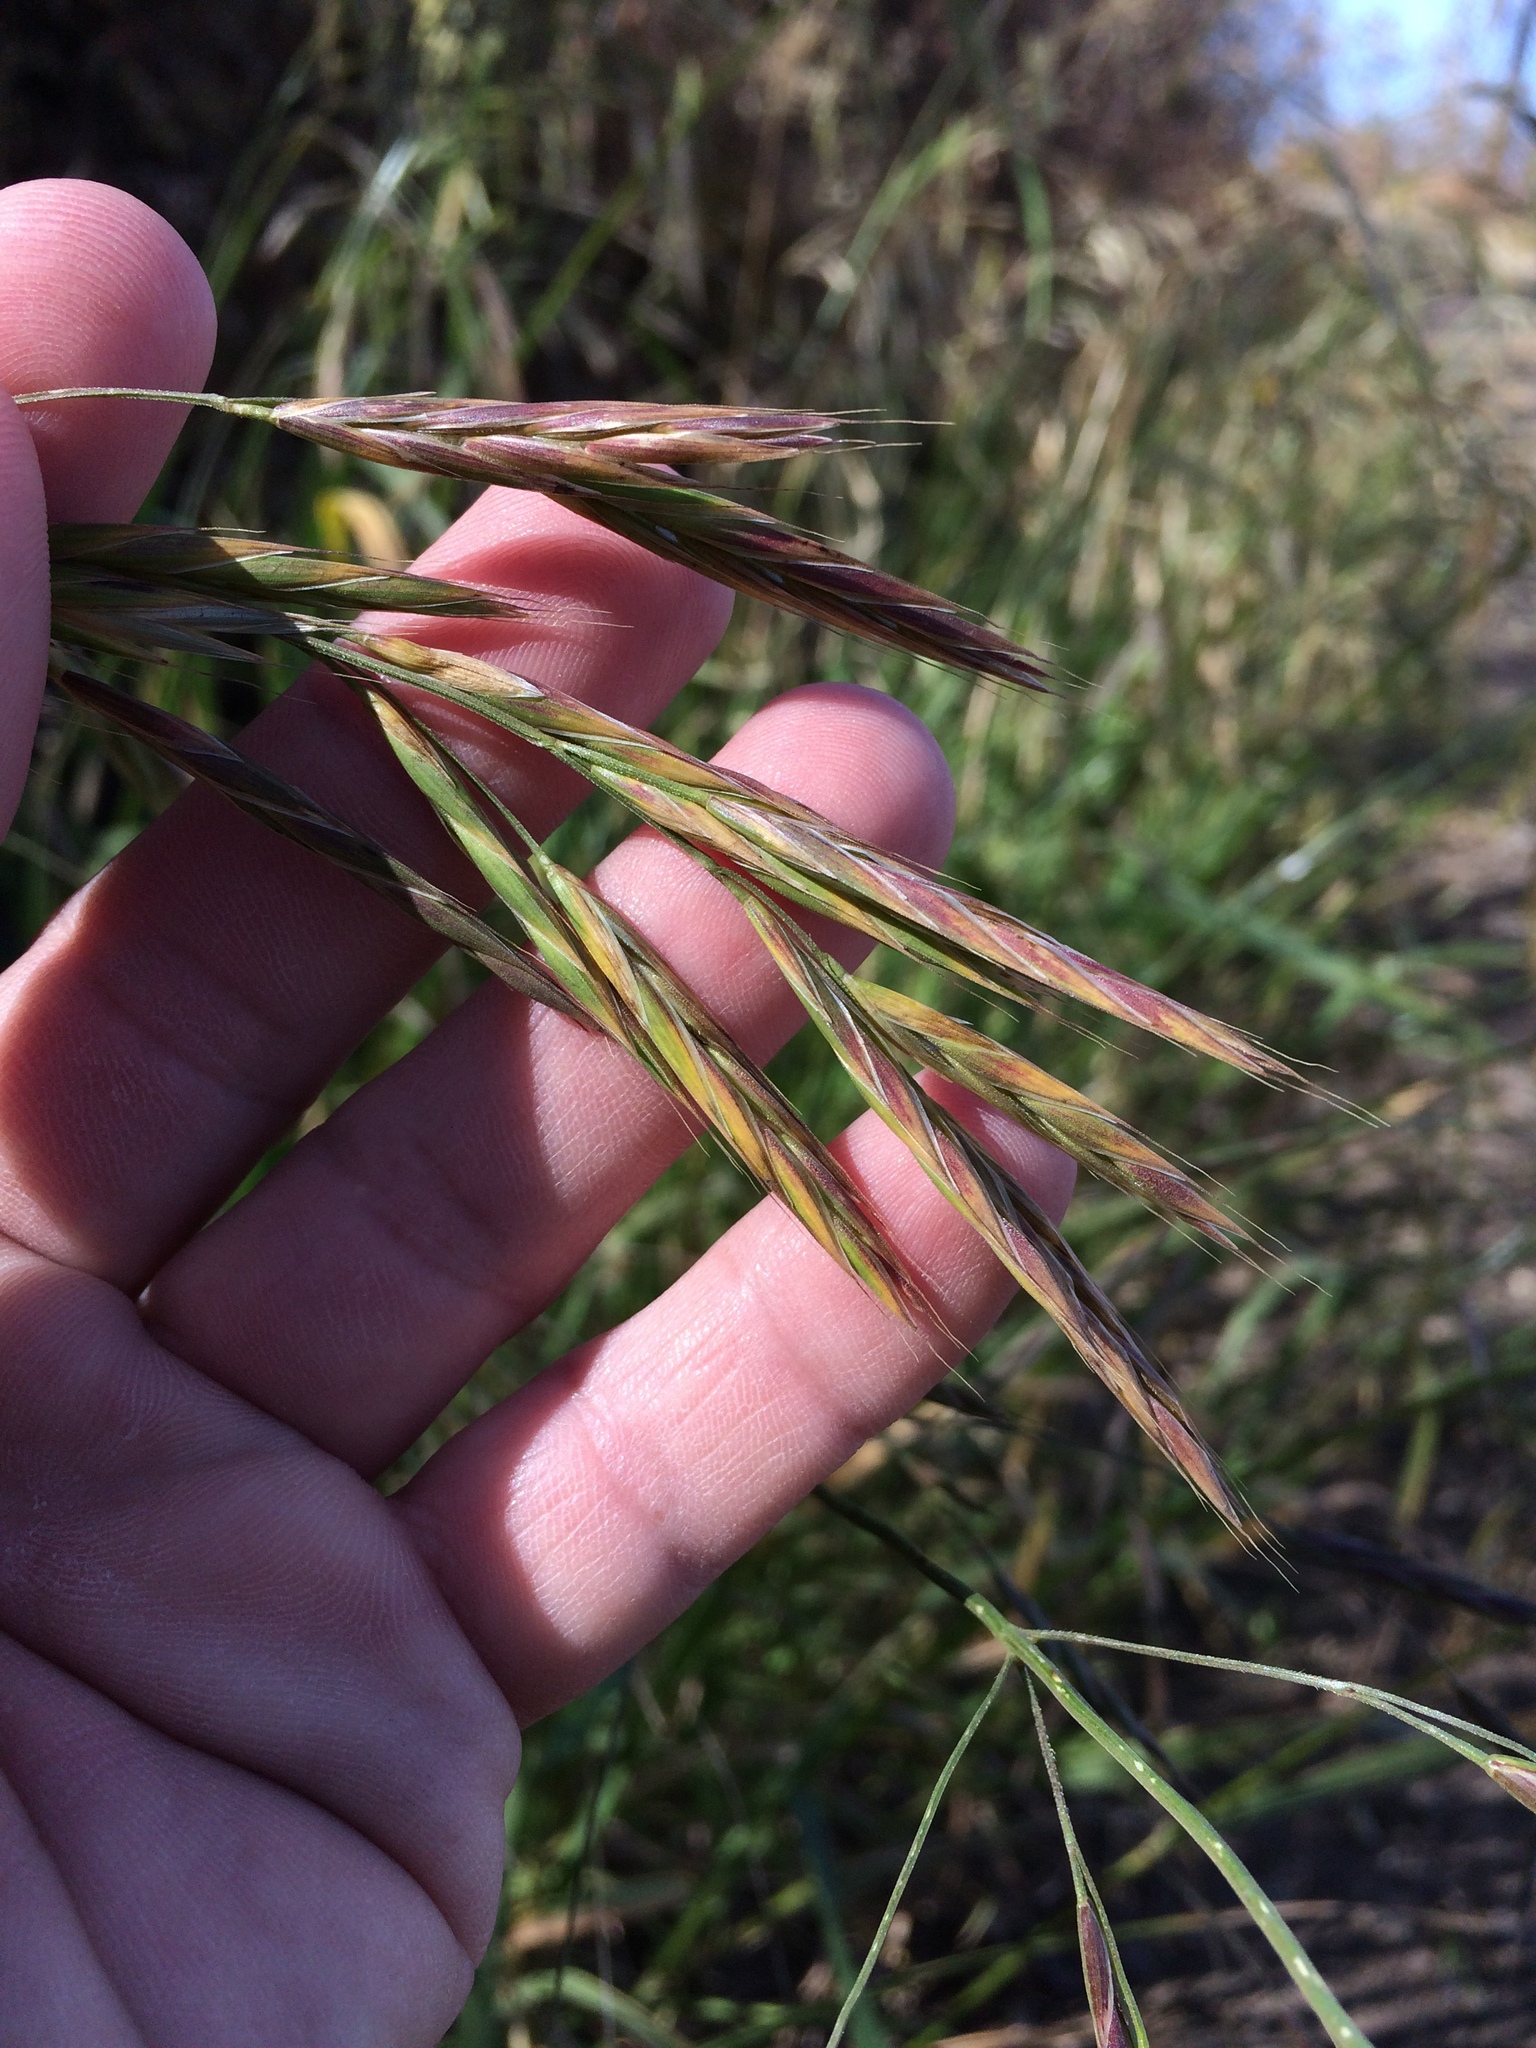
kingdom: Plantae
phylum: Tracheophyta
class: Liliopsida
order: Poales
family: Poaceae
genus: Bromus
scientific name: Bromus carinatus
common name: Mountain brome
